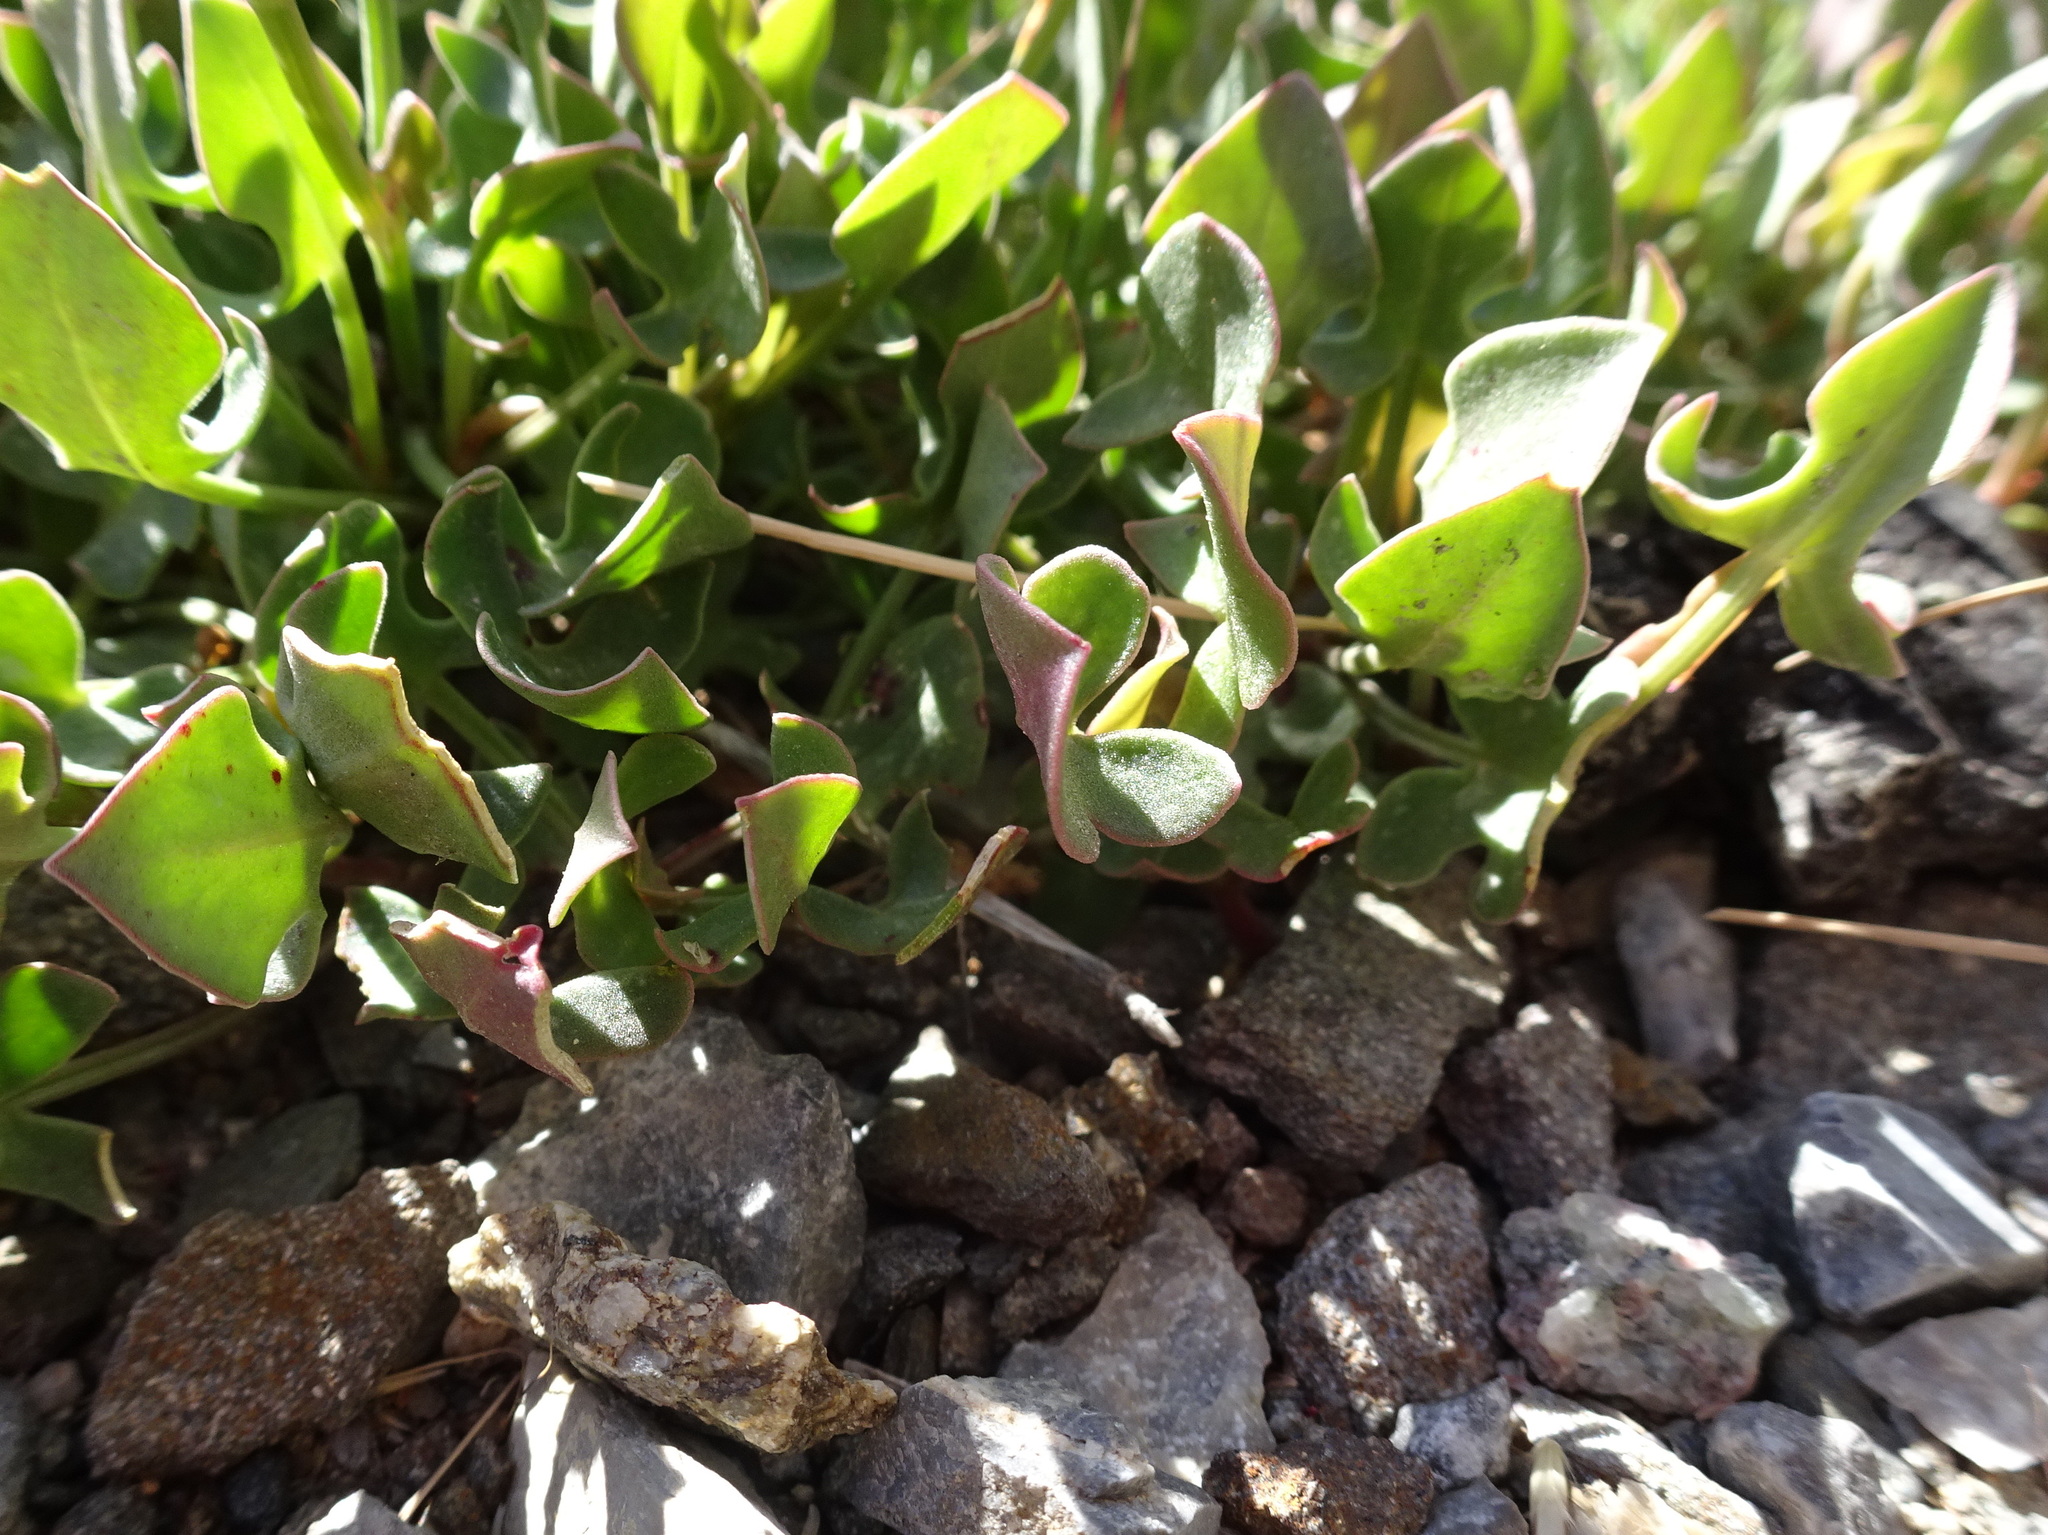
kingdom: Plantae
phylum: Tracheophyta
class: Magnoliopsida
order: Caryophyllales
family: Polygonaceae
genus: Rumex
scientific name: Rumex scutatus
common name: French sorrel
